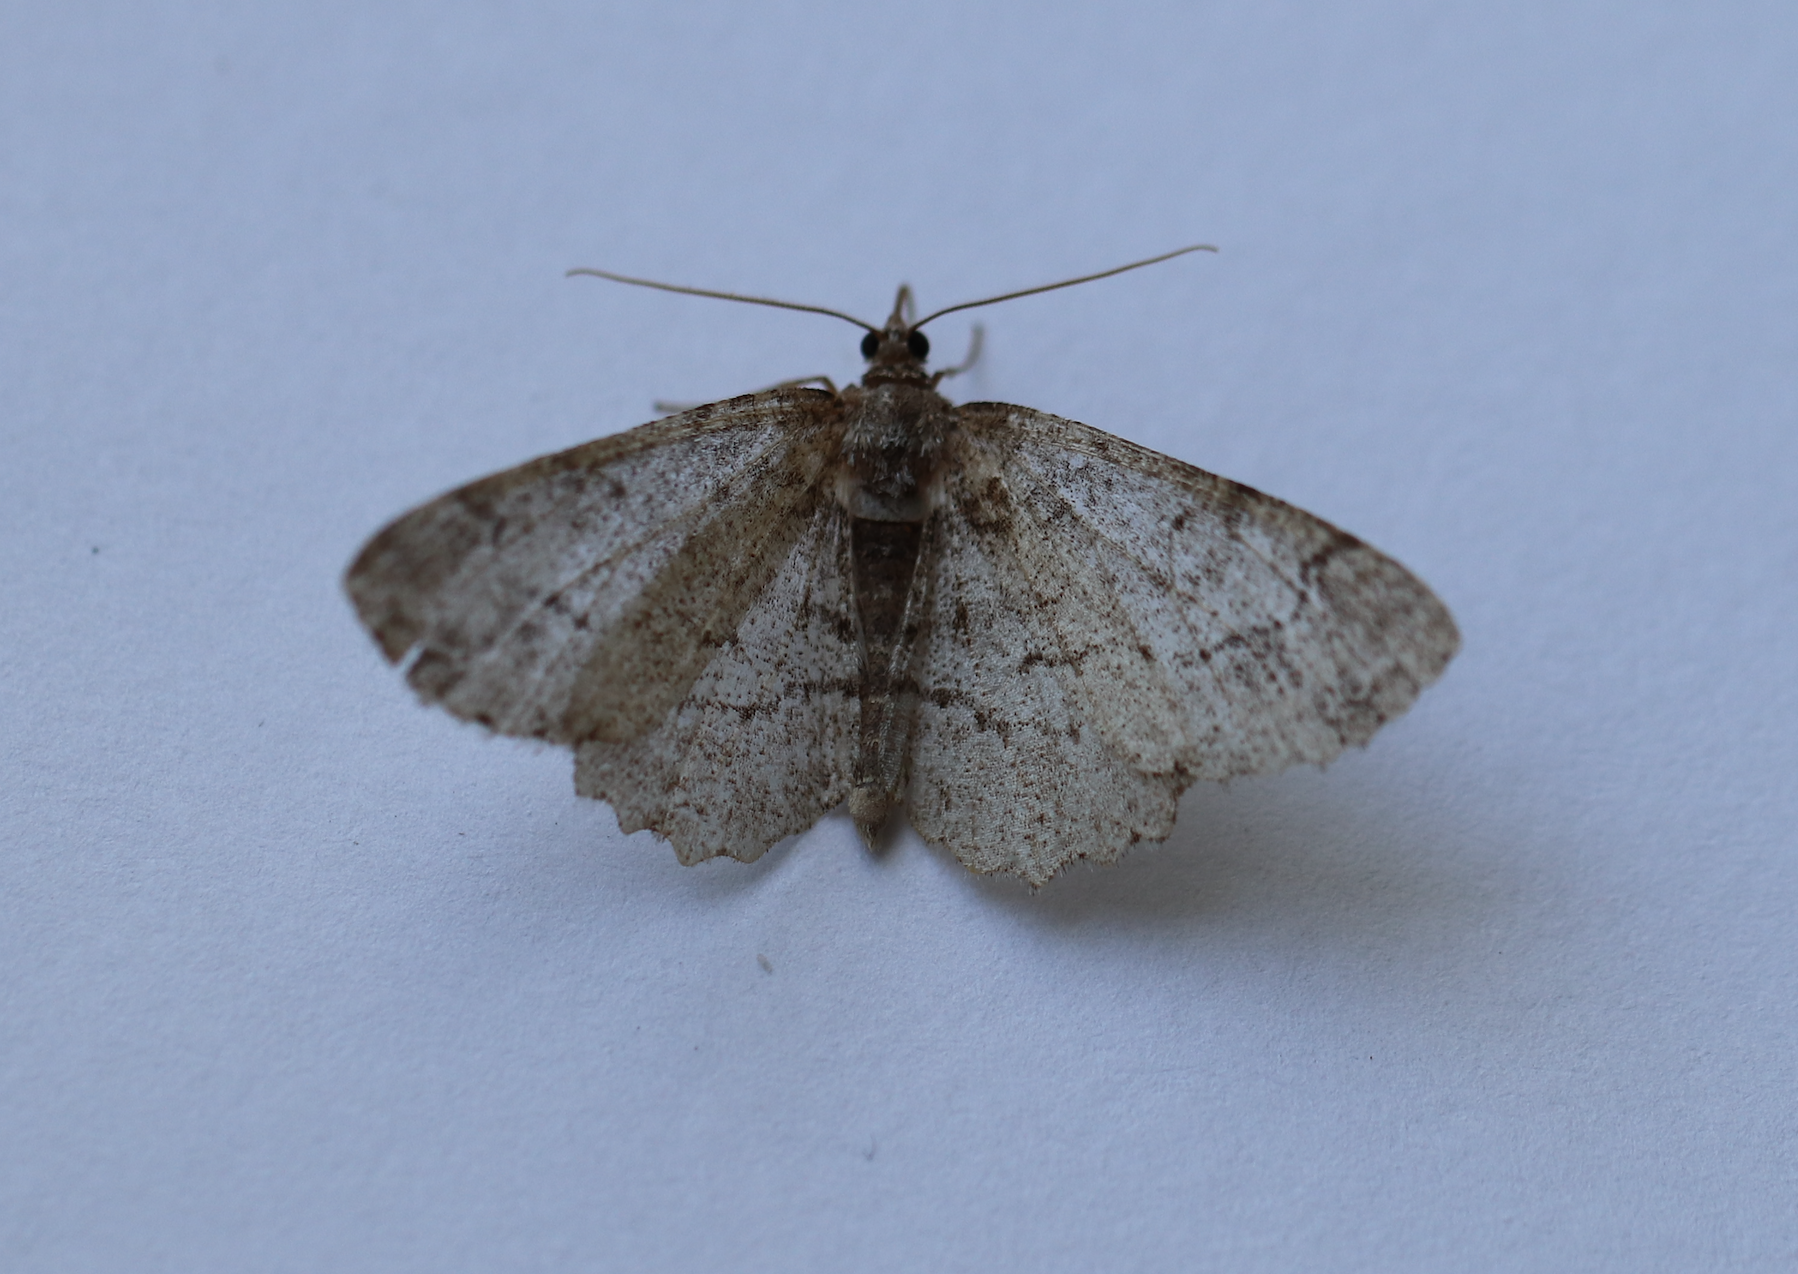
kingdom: Animalia
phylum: Arthropoda
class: Insecta
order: Lepidoptera
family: Geometridae
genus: Paradarisa
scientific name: Paradarisa consonaria
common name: Square spot
